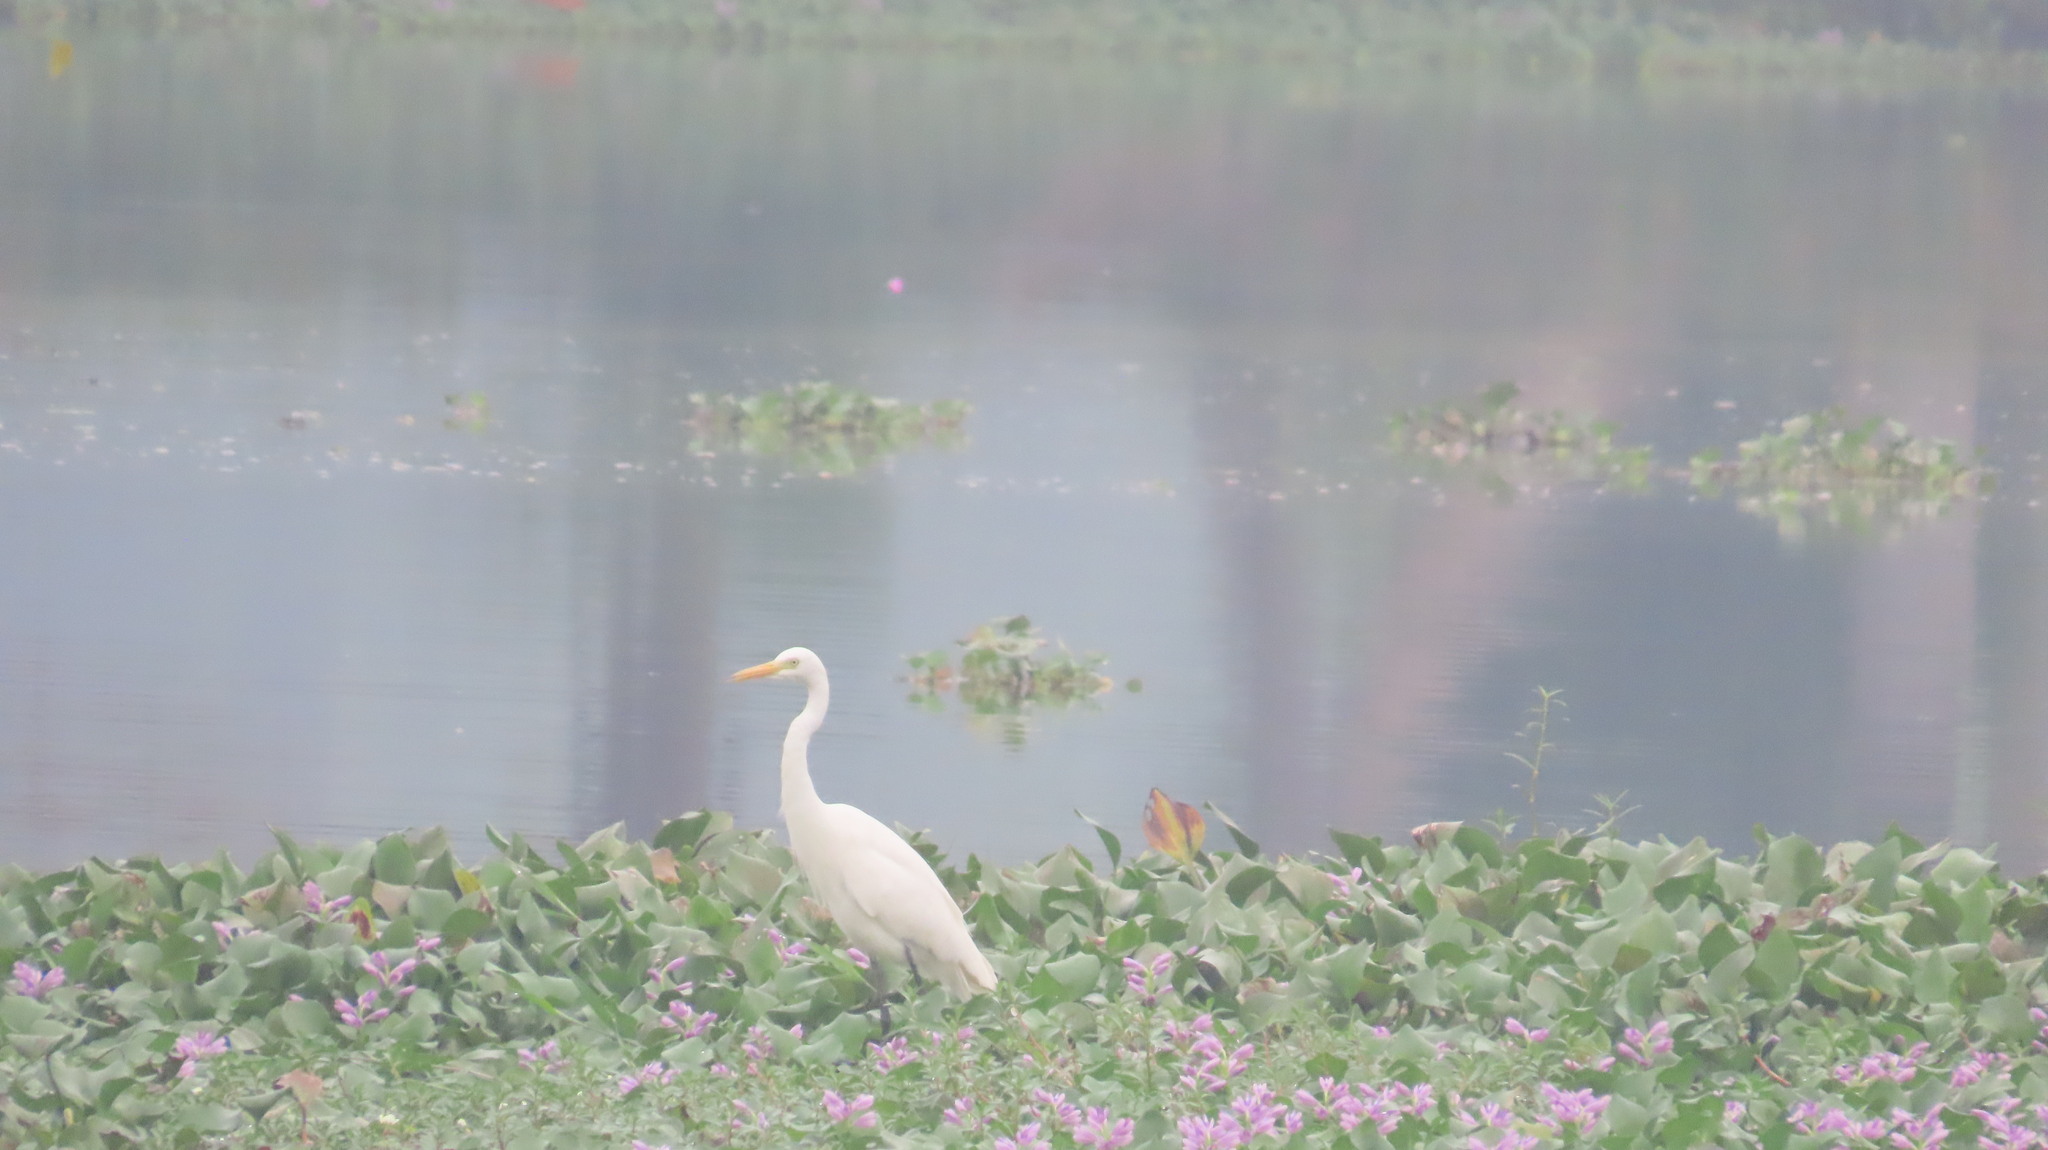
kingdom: Animalia
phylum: Chordata
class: Aves
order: Pelecaniformes
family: Ardeidae
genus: Egretta
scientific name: Egretta intermedia
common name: Intermediate egret
